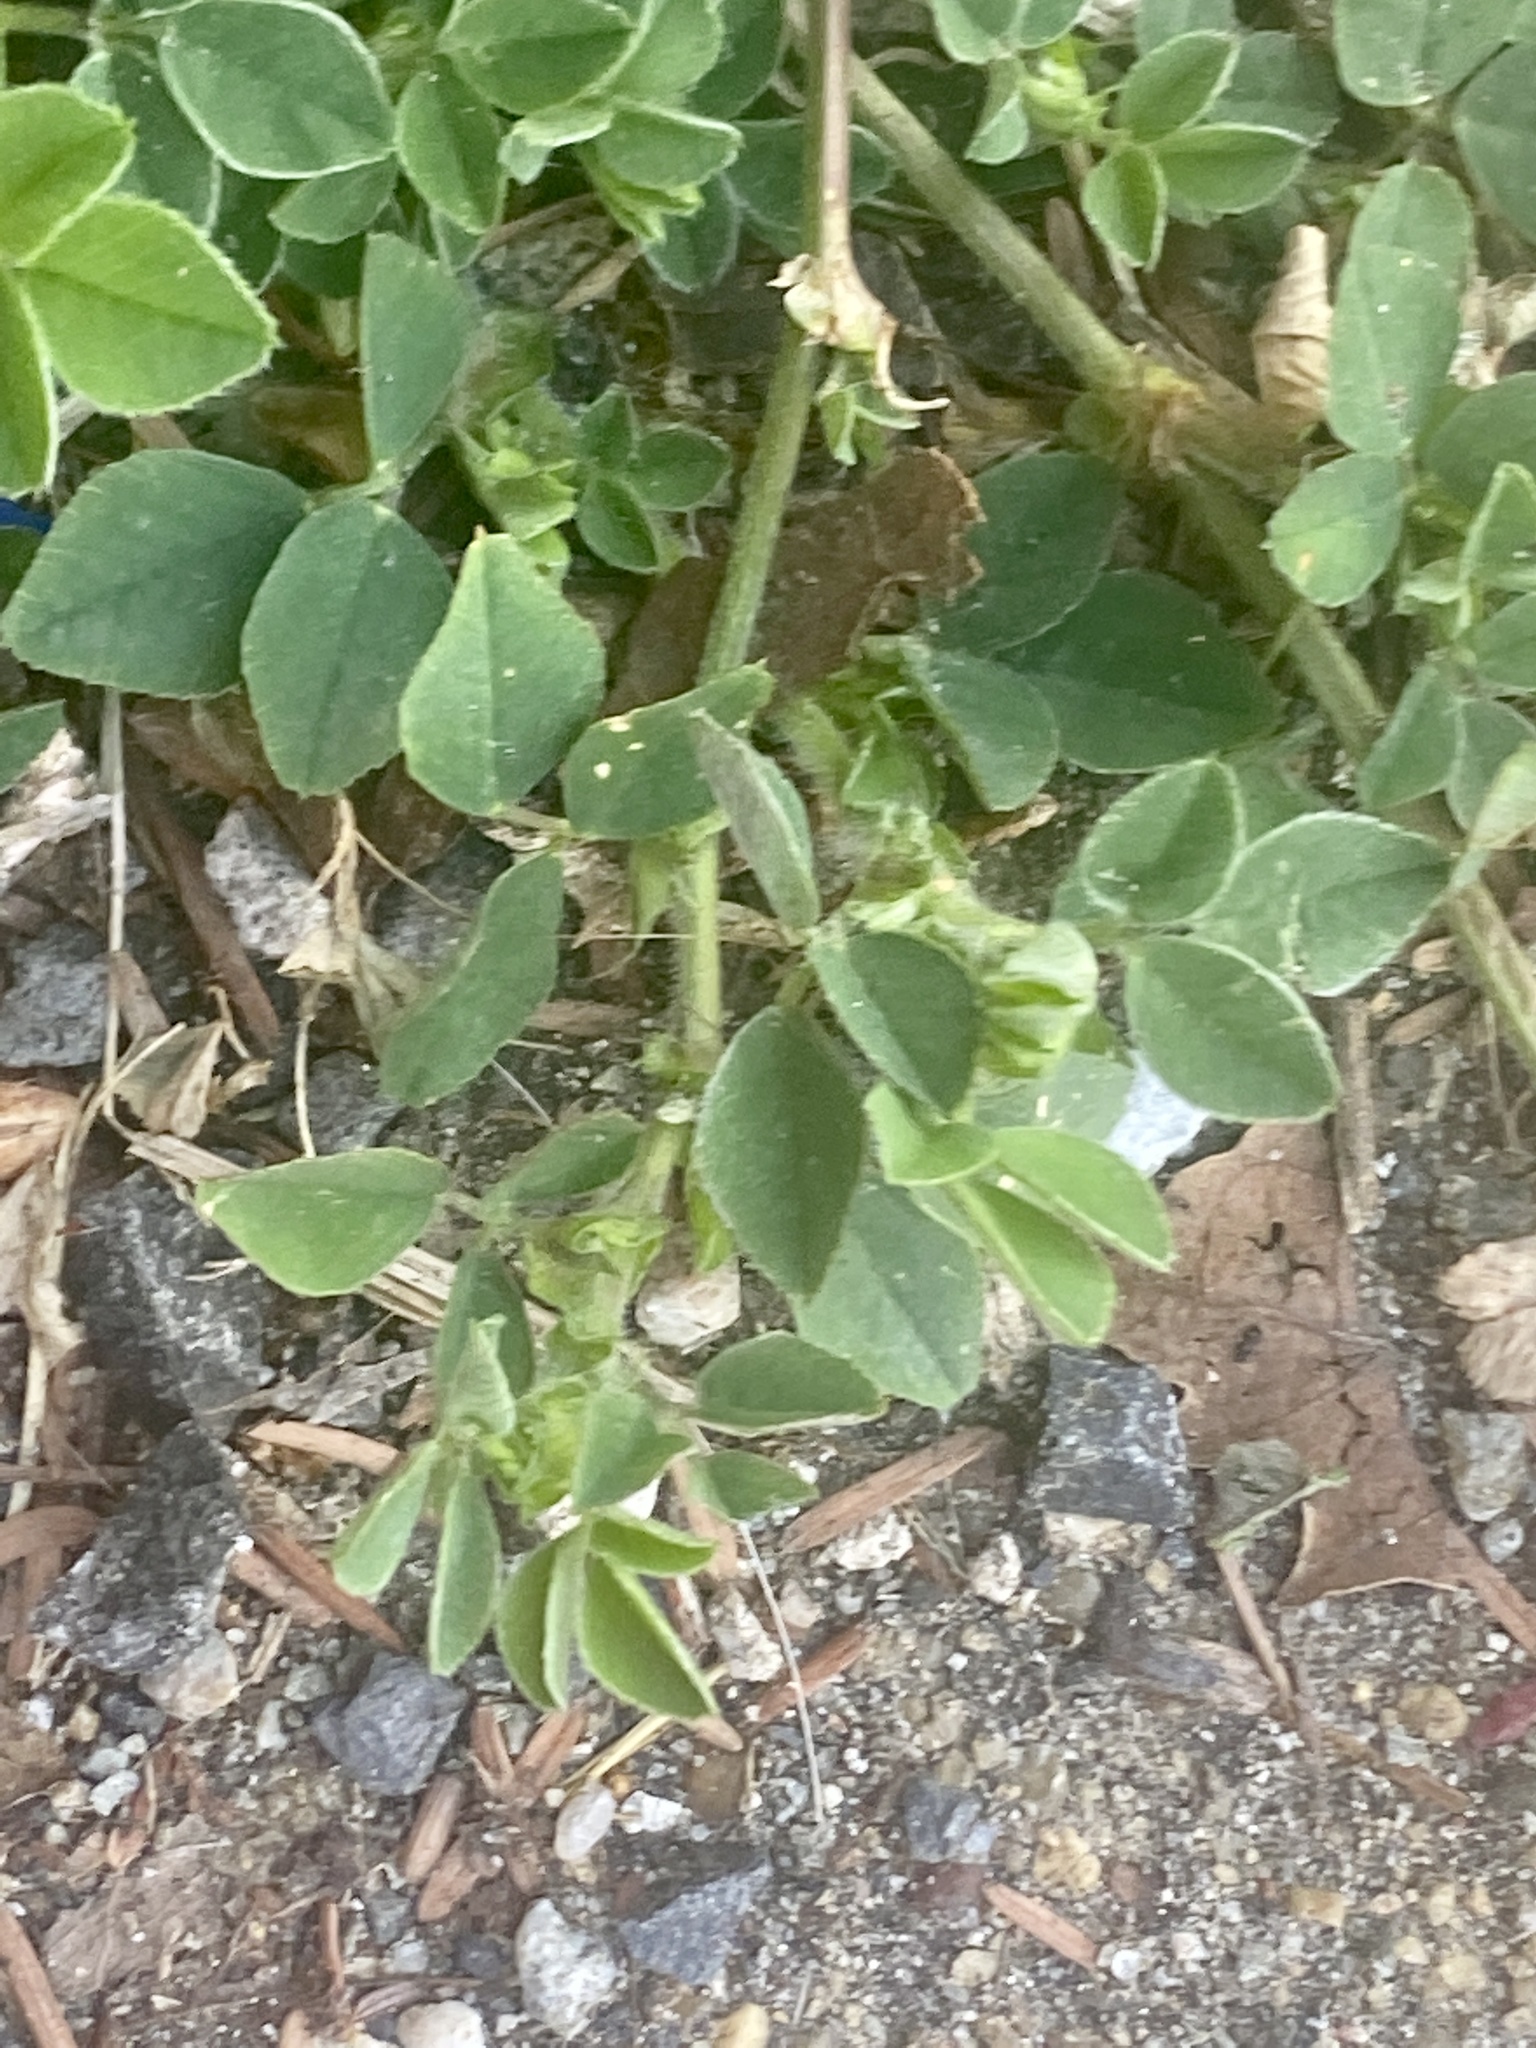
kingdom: Plantae
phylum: Tracheophyta
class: Magnoliopsida
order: Fabales
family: Fabaceae
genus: Medicago
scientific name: Medicago lupulina
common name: Black medick
